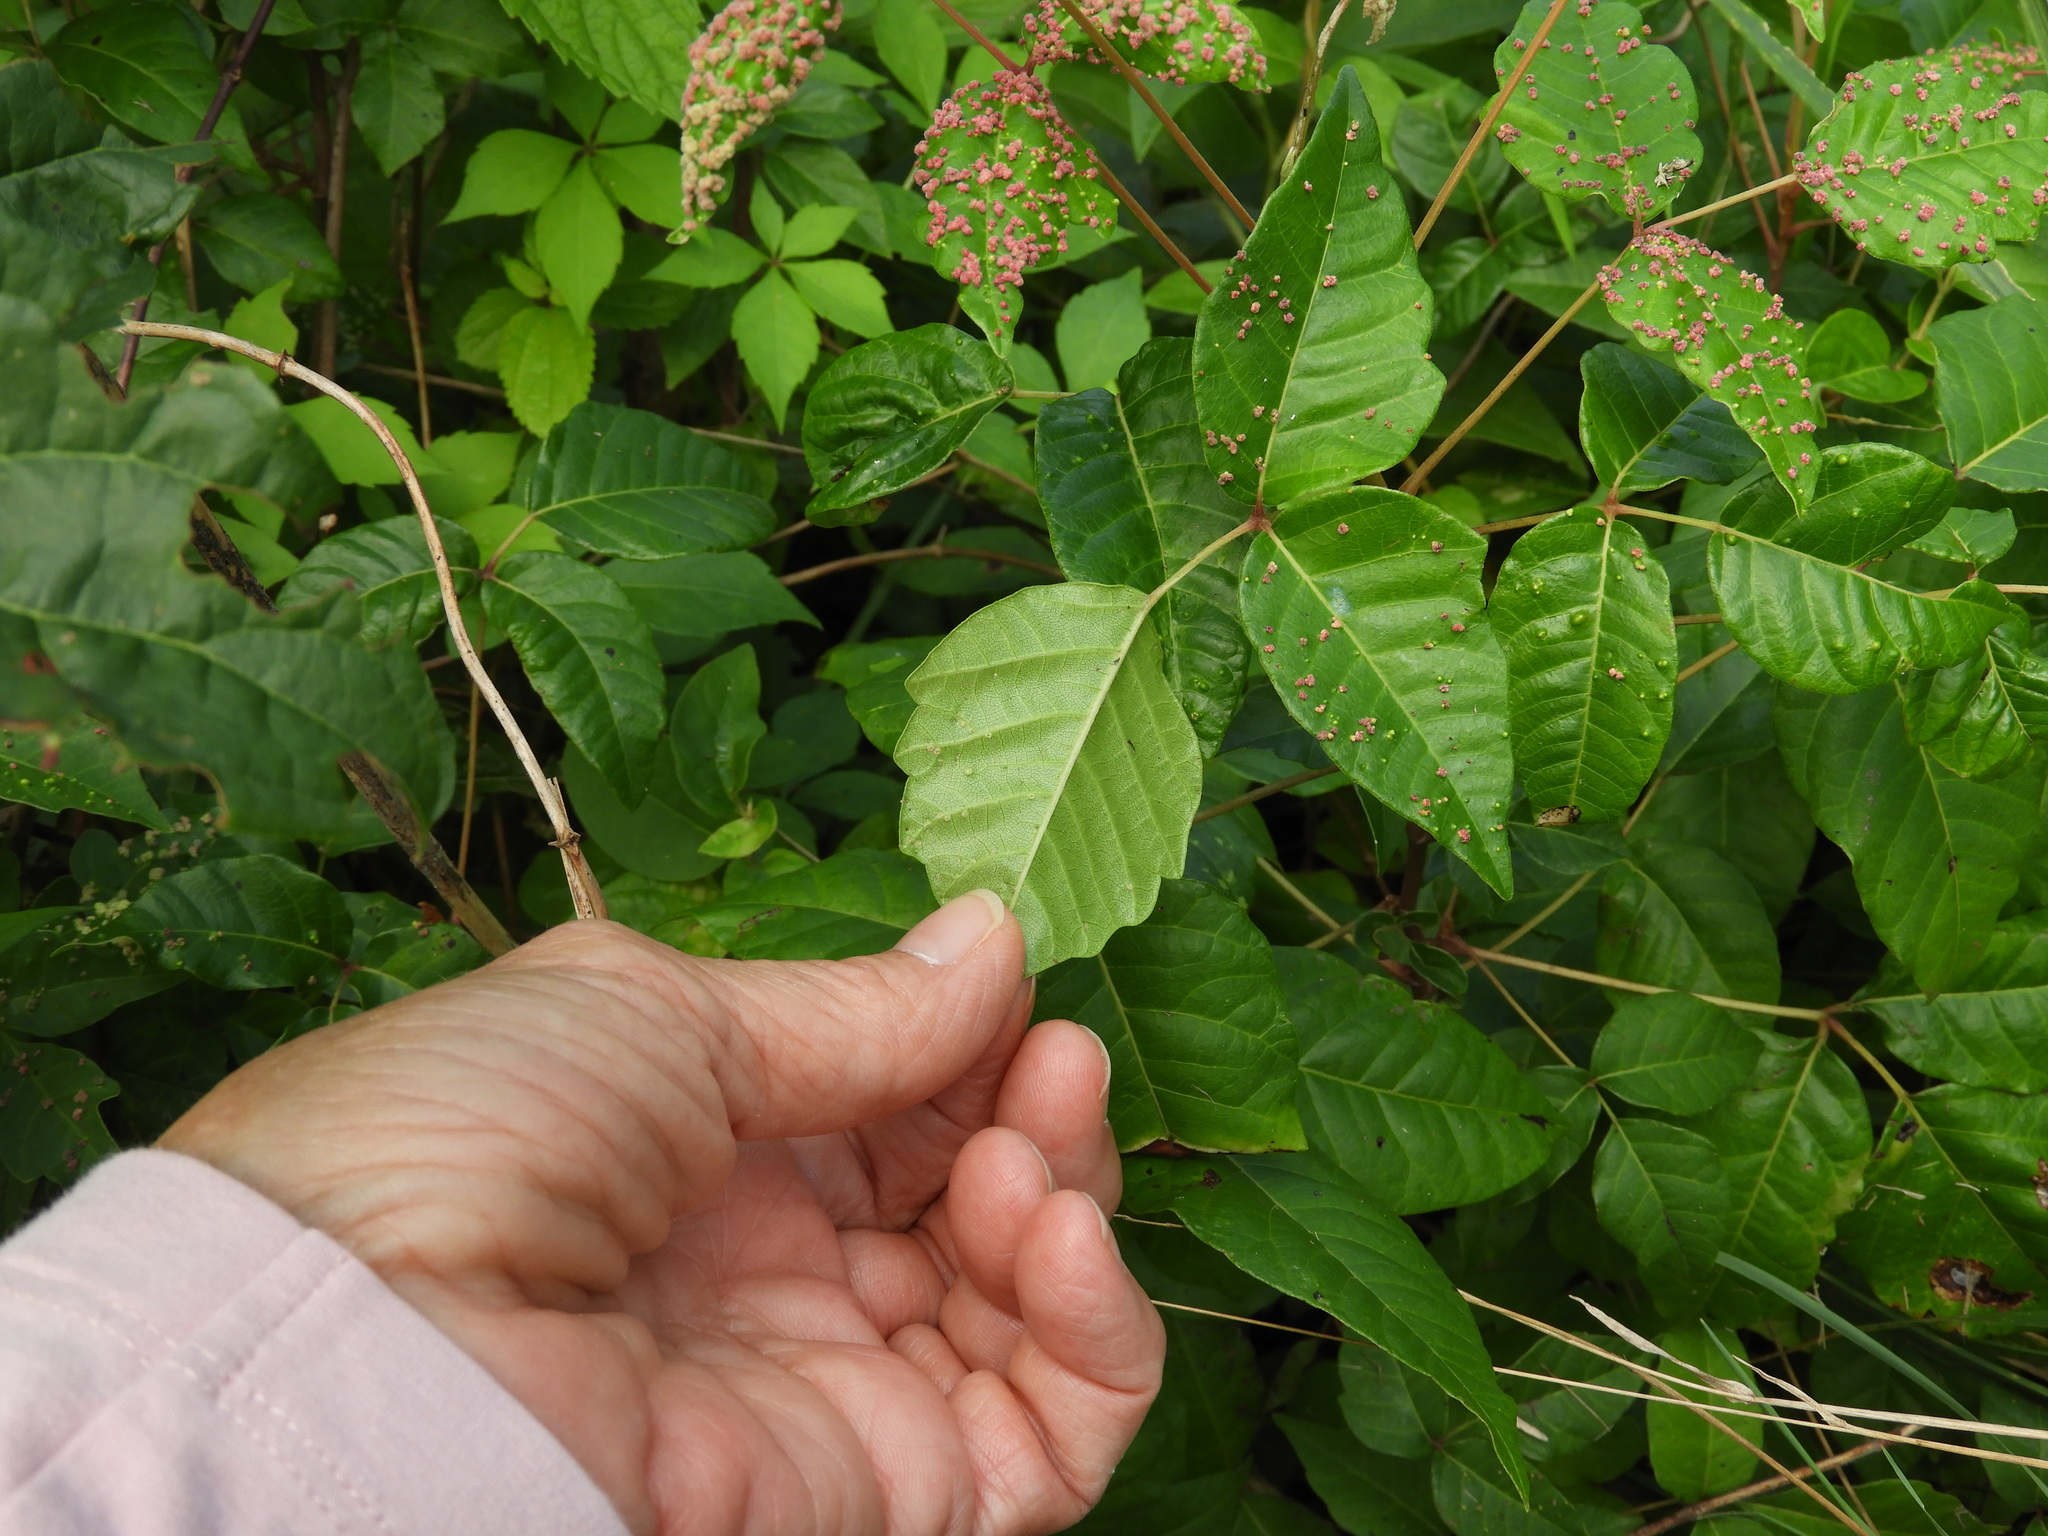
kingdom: Animalia
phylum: Arthropoda
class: Arachnida
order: Trombidiformes
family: Eriophyidae
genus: Aculops
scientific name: Aculops
